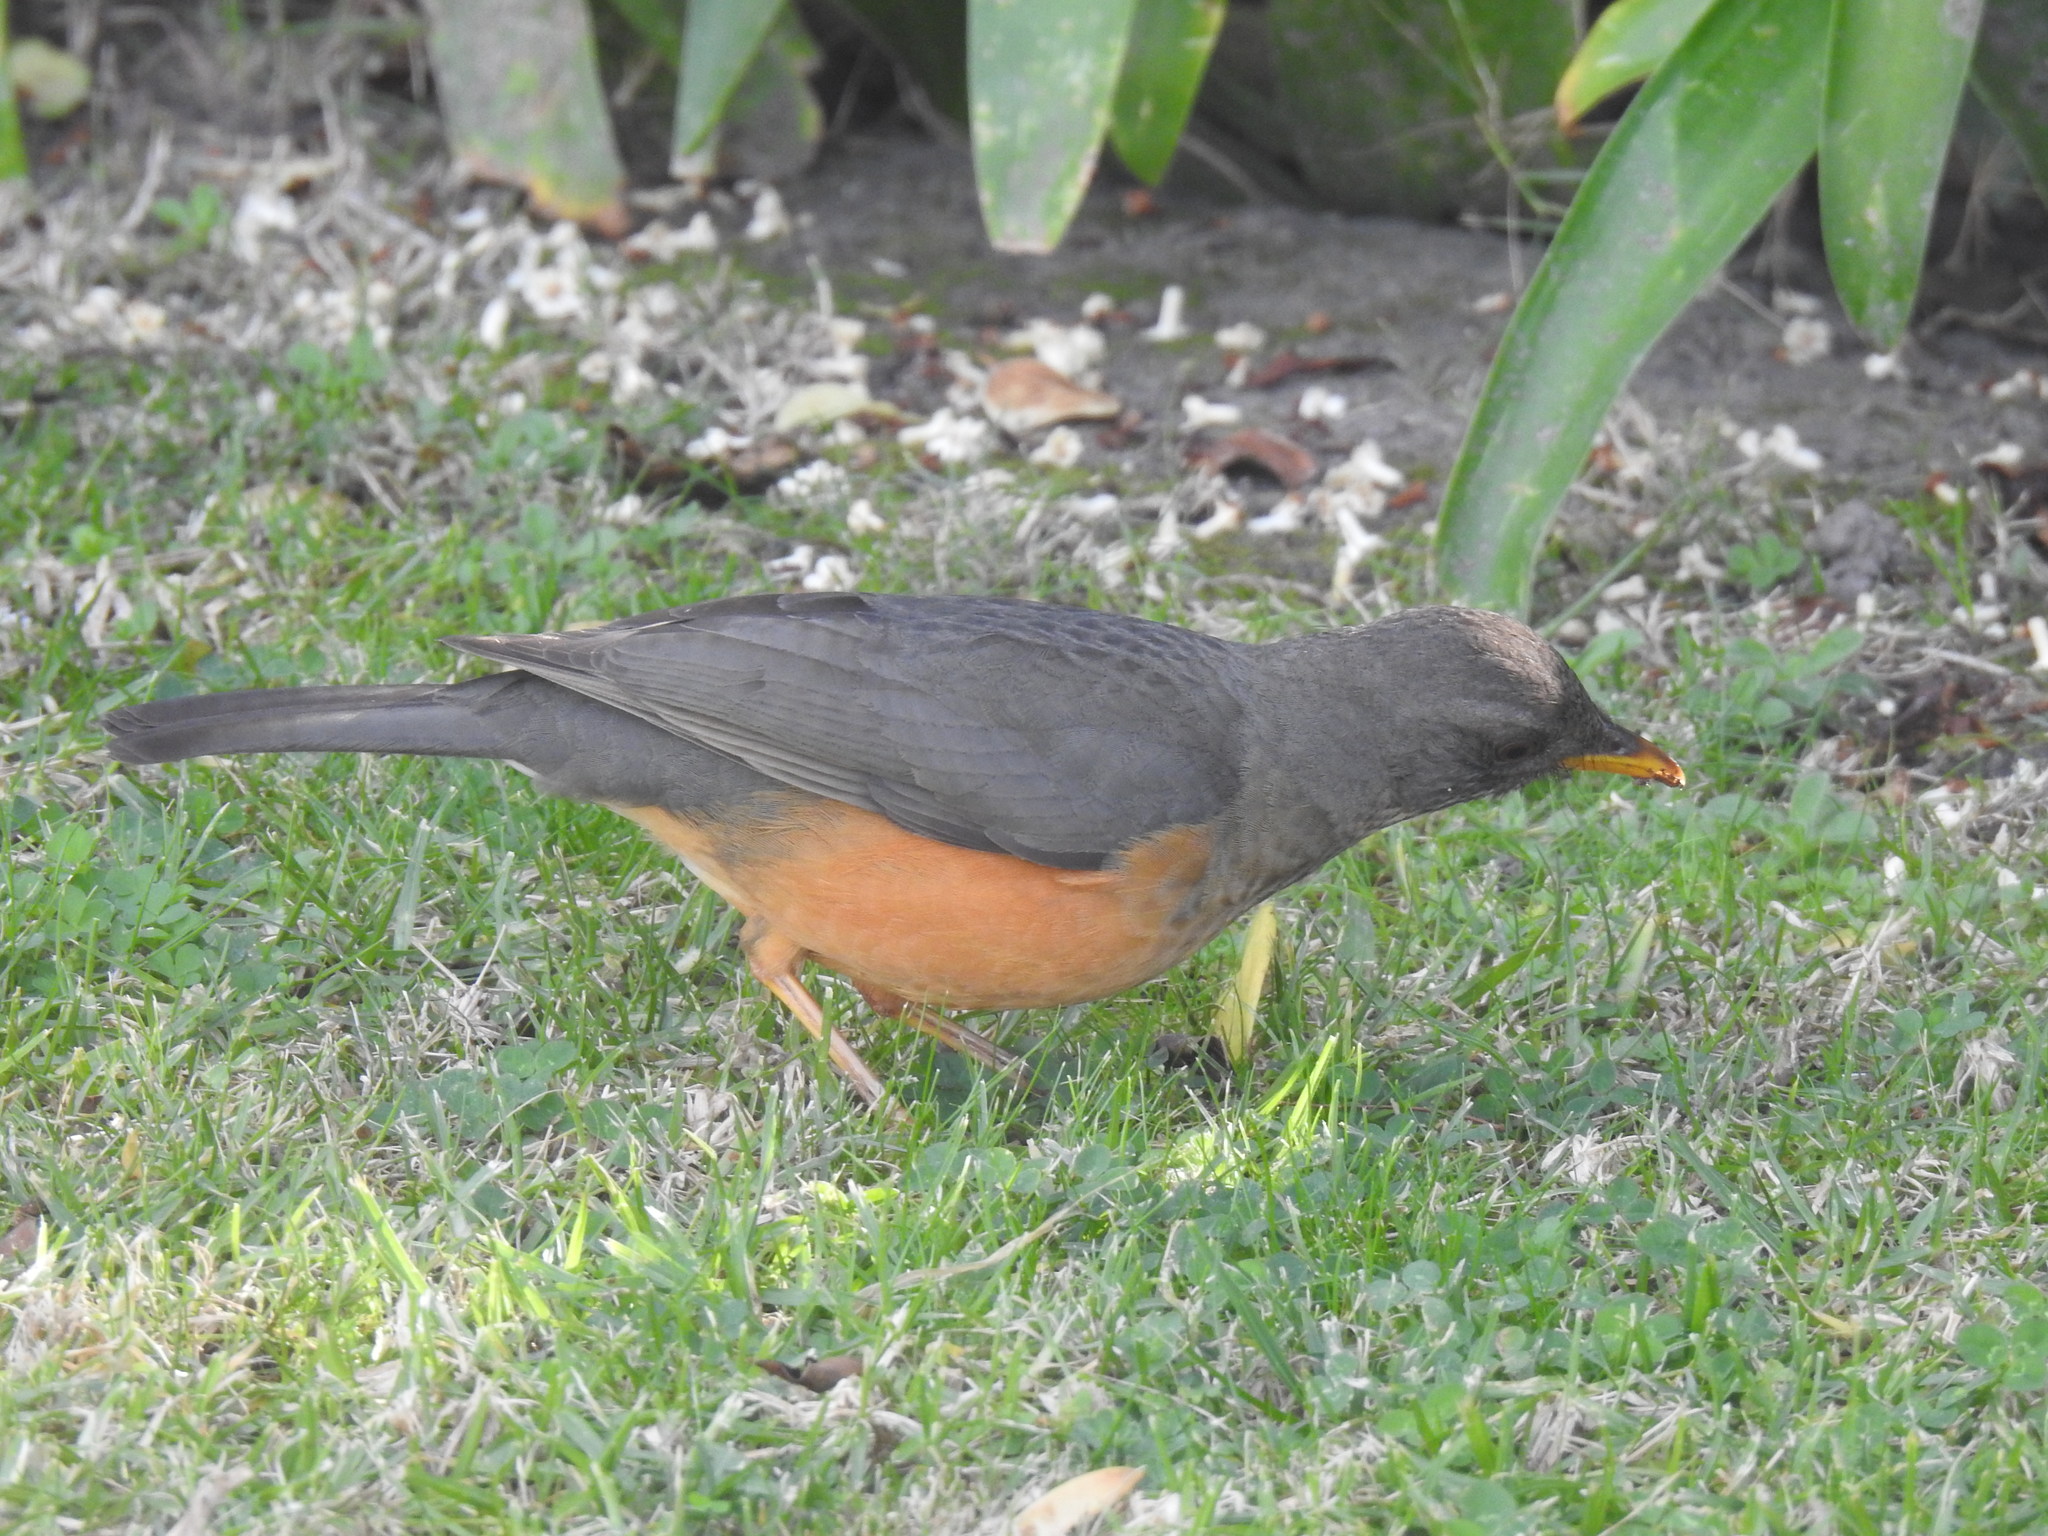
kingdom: Animalia
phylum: Chordata
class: Aves
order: Passeriformes
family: Turdidae
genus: Turdus
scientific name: Turdus olivaceus
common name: Olive thrush
